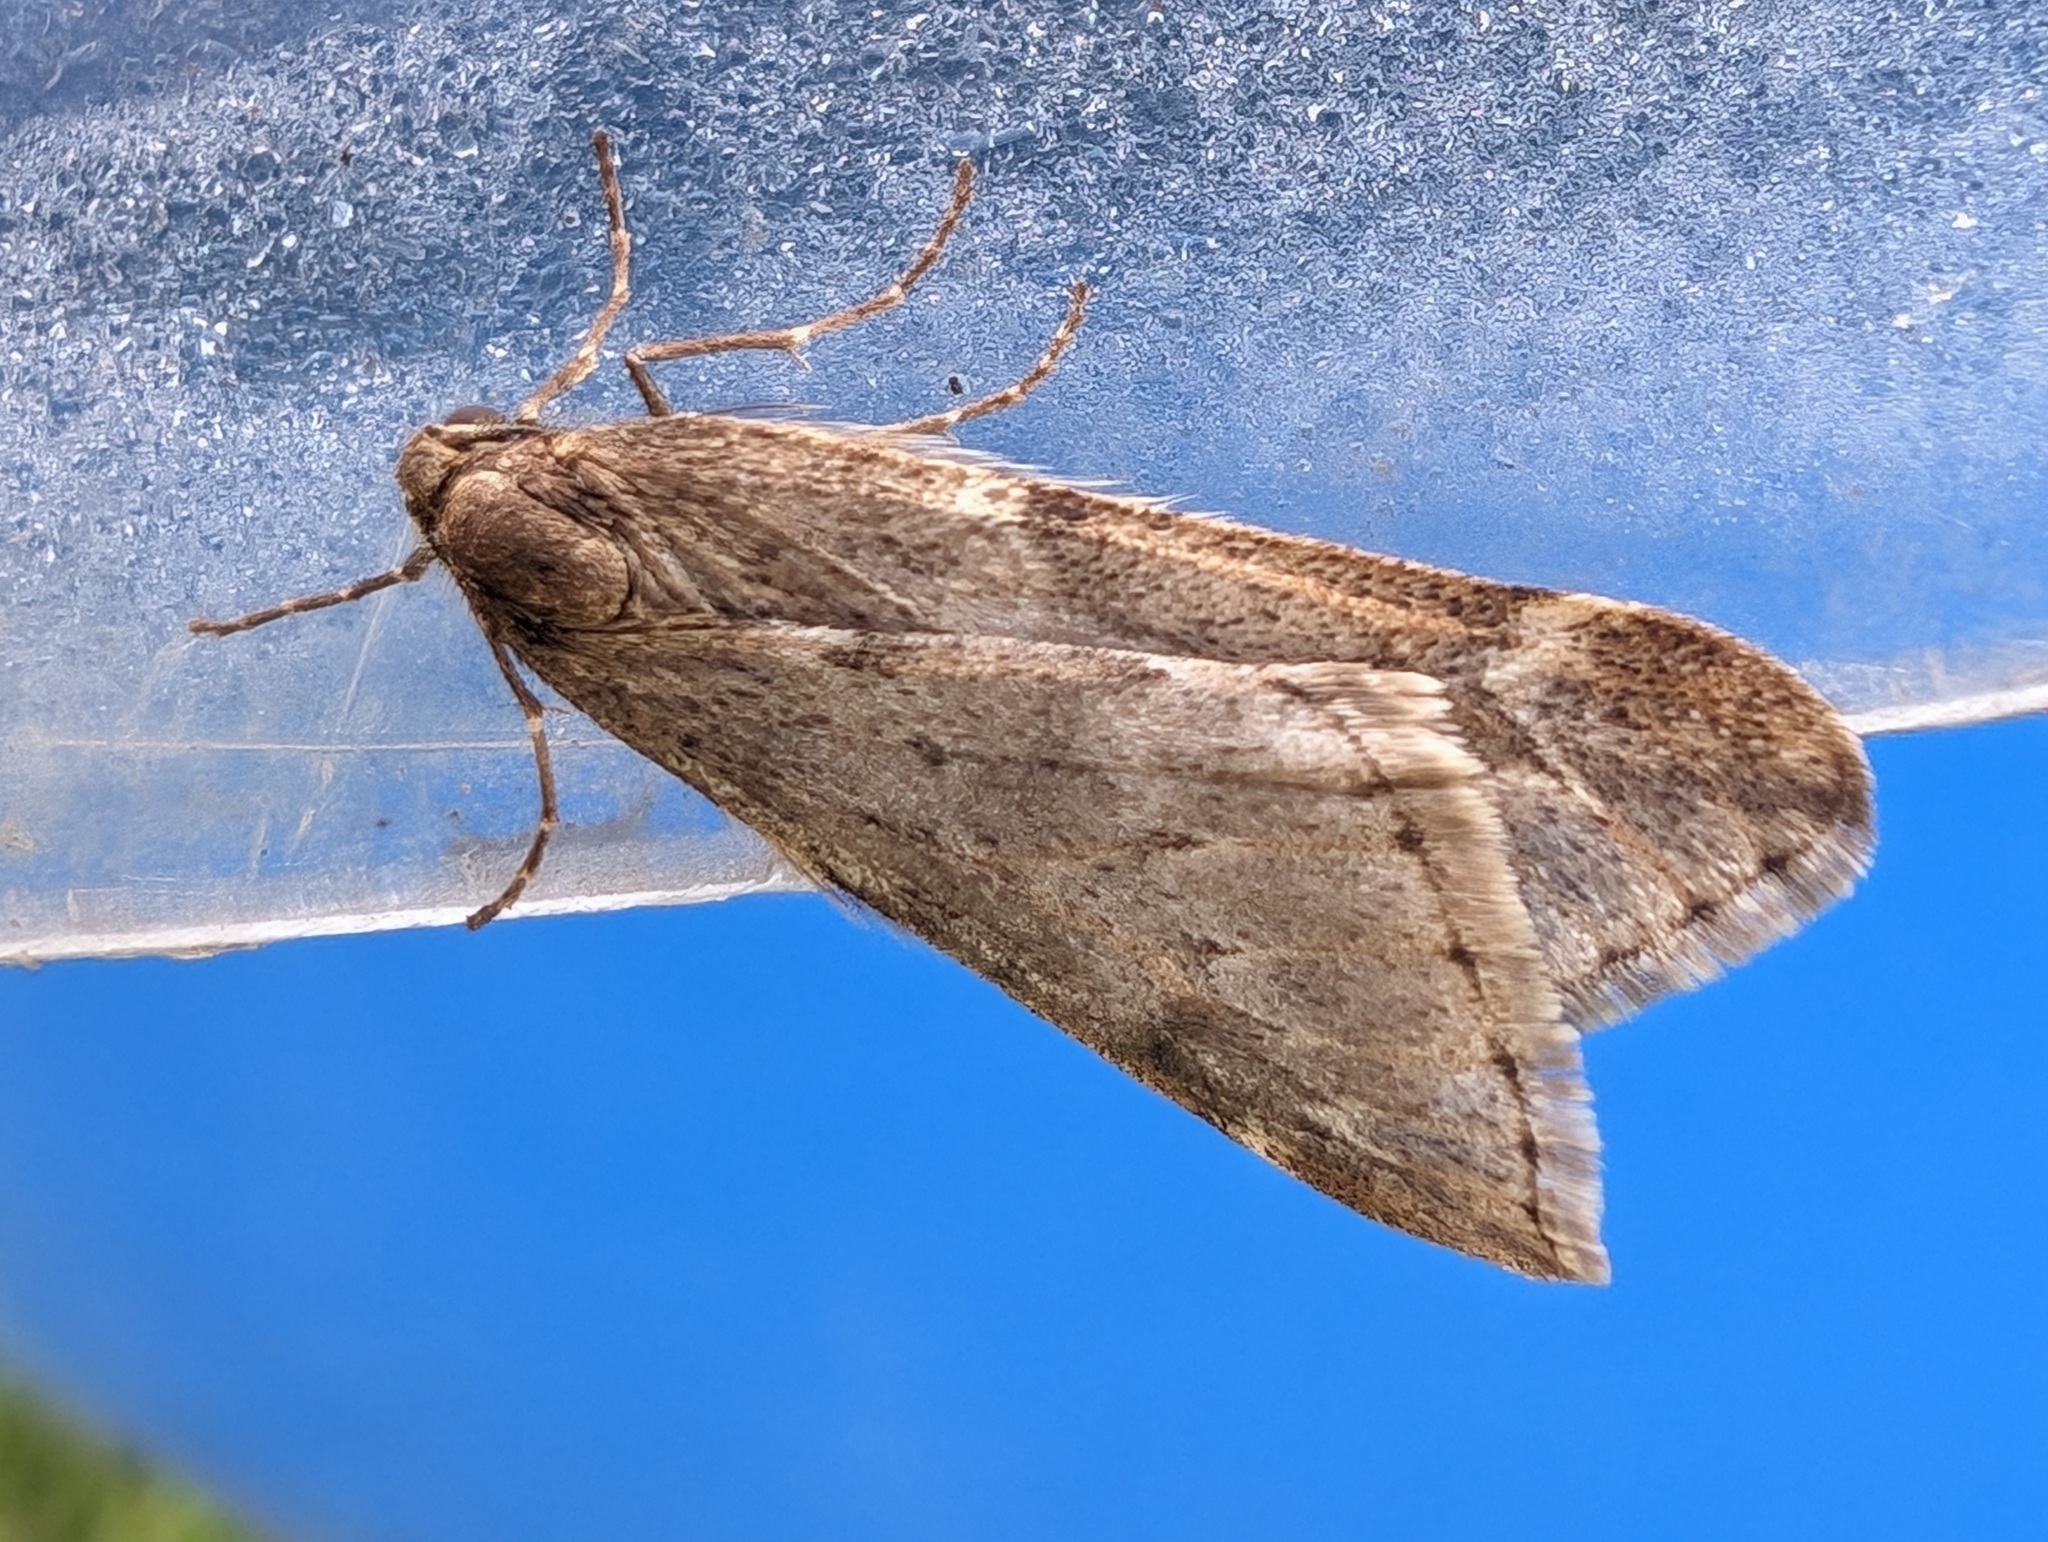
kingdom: Animalia
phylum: Arthropoda
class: Insecta
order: Lepidoptera
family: Geometridae
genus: Alsophila
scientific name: Alsophila aescularia
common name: March moth
